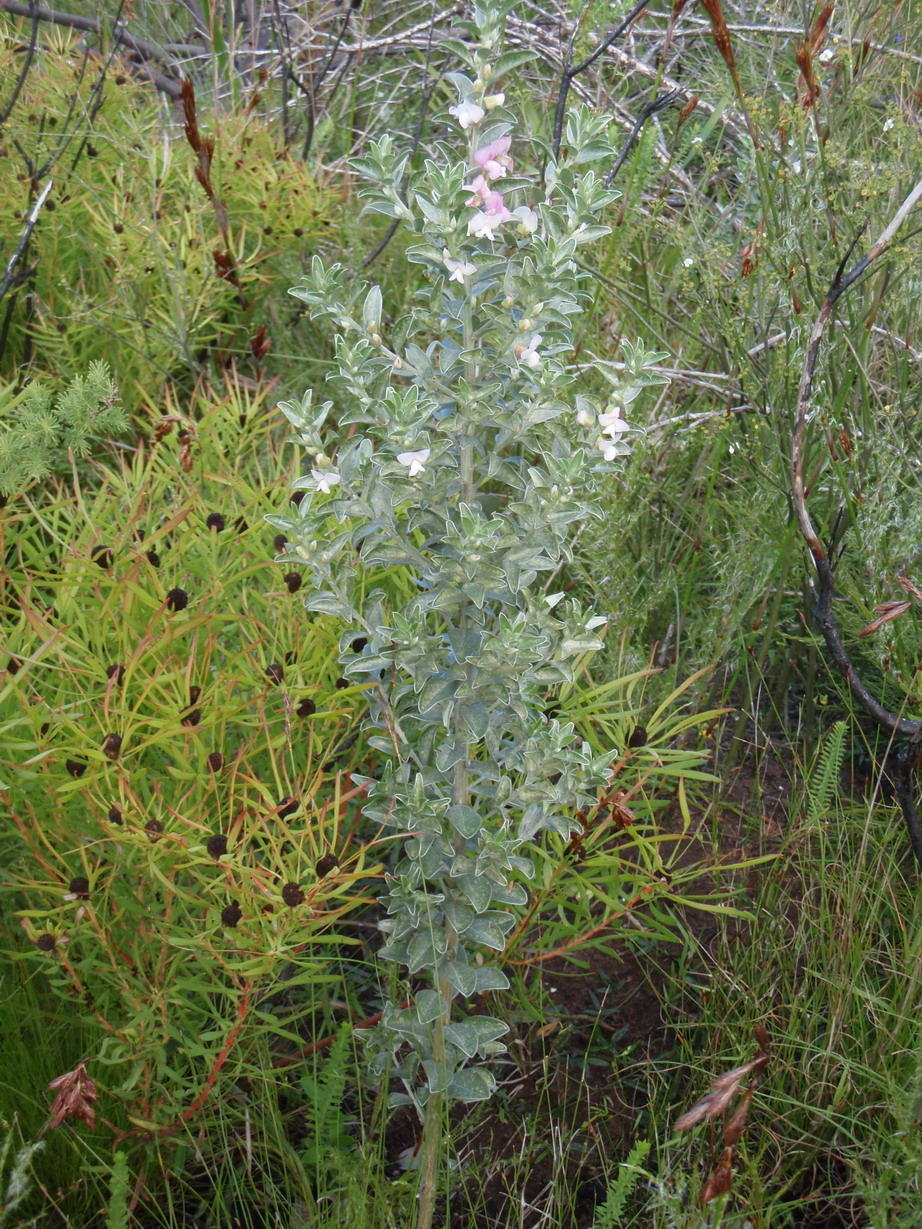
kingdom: Plantae
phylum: Tracheophyta
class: Magnoliopsida
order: Fabales
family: Fabaceae
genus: Podalyria
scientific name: Podalyria myrtillifolia
